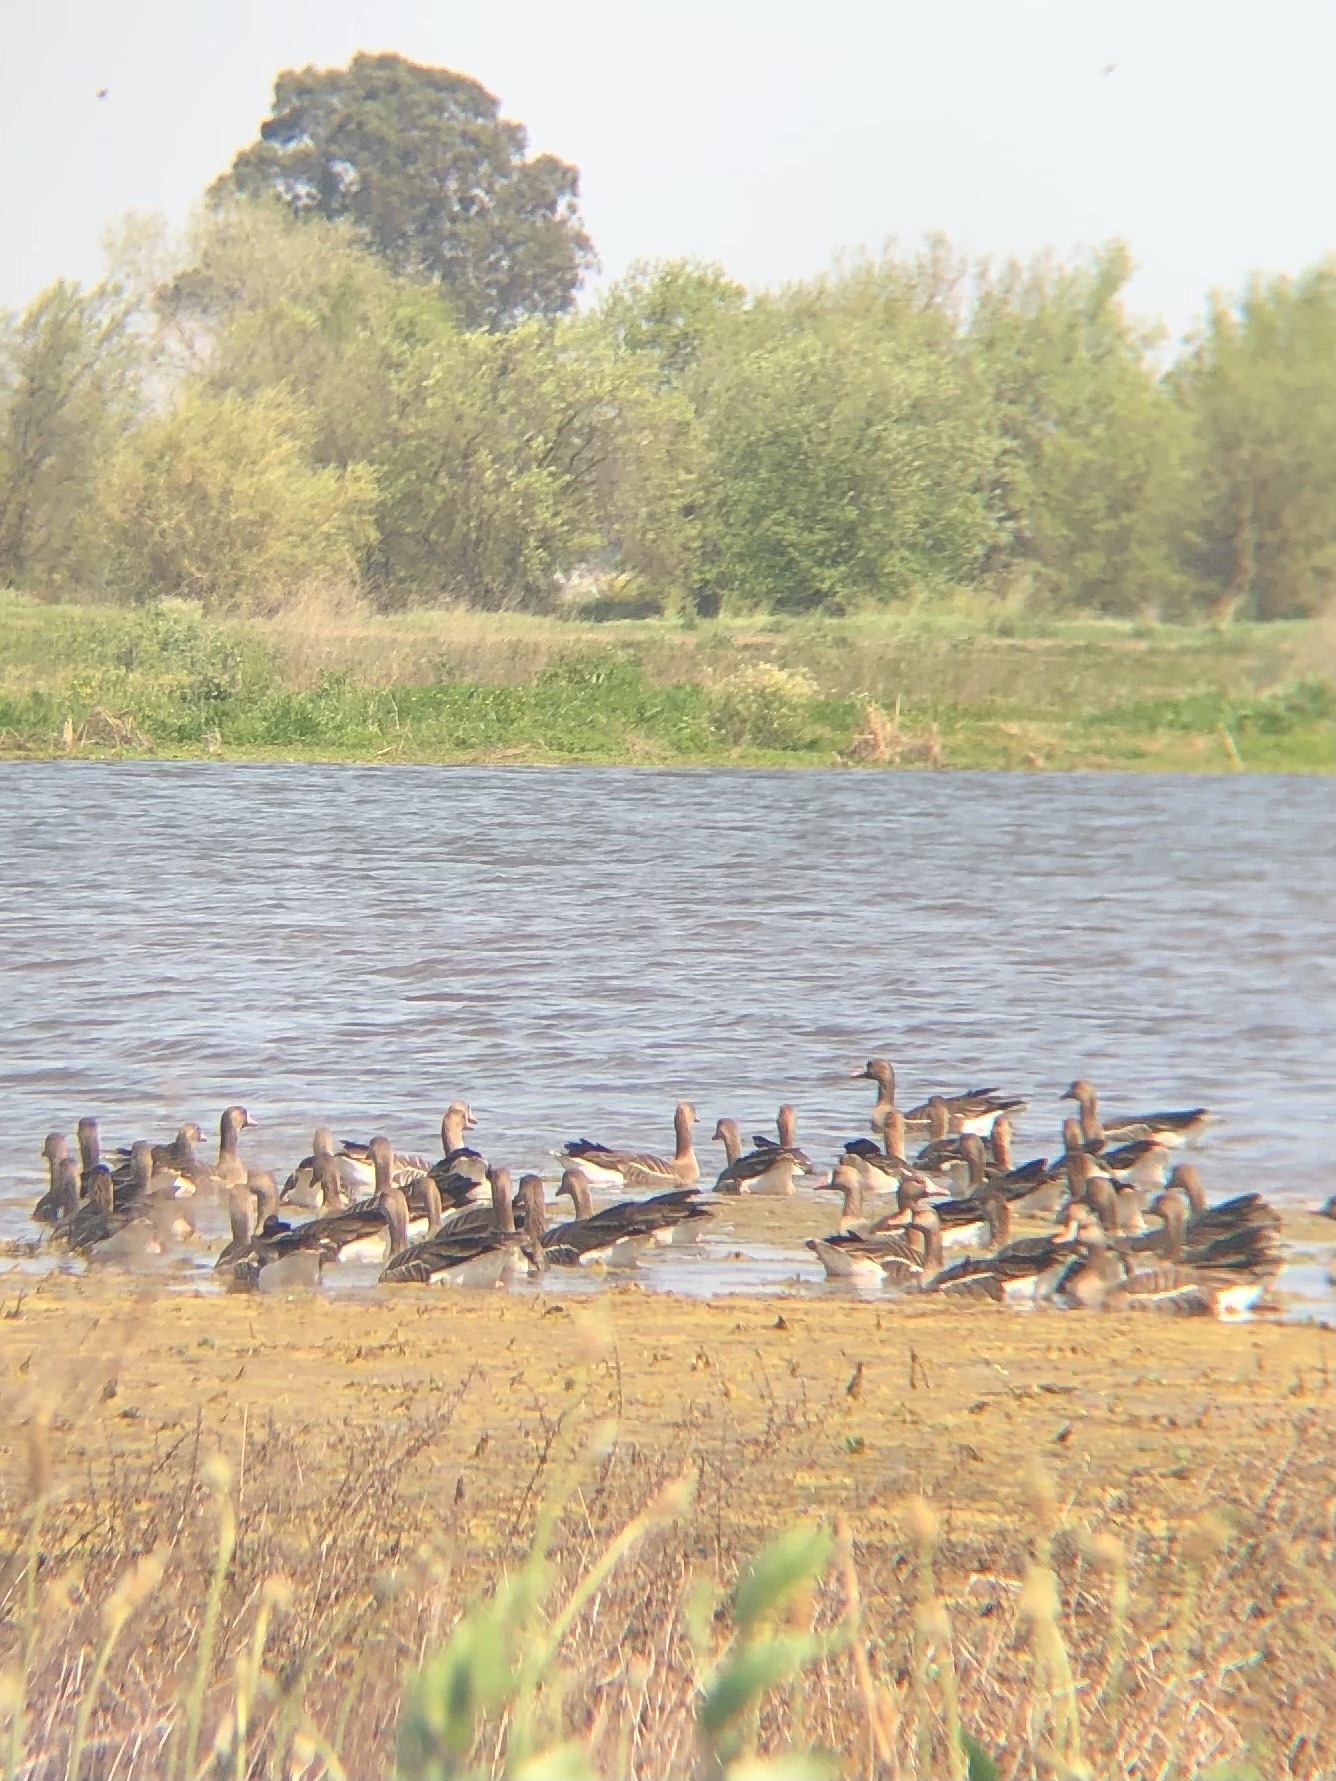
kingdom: Animalia
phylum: Chordata
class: Aves
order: Anseriformes
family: Anatidae
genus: Anser
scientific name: Anser albifrons
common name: Greater white-fronted goose
